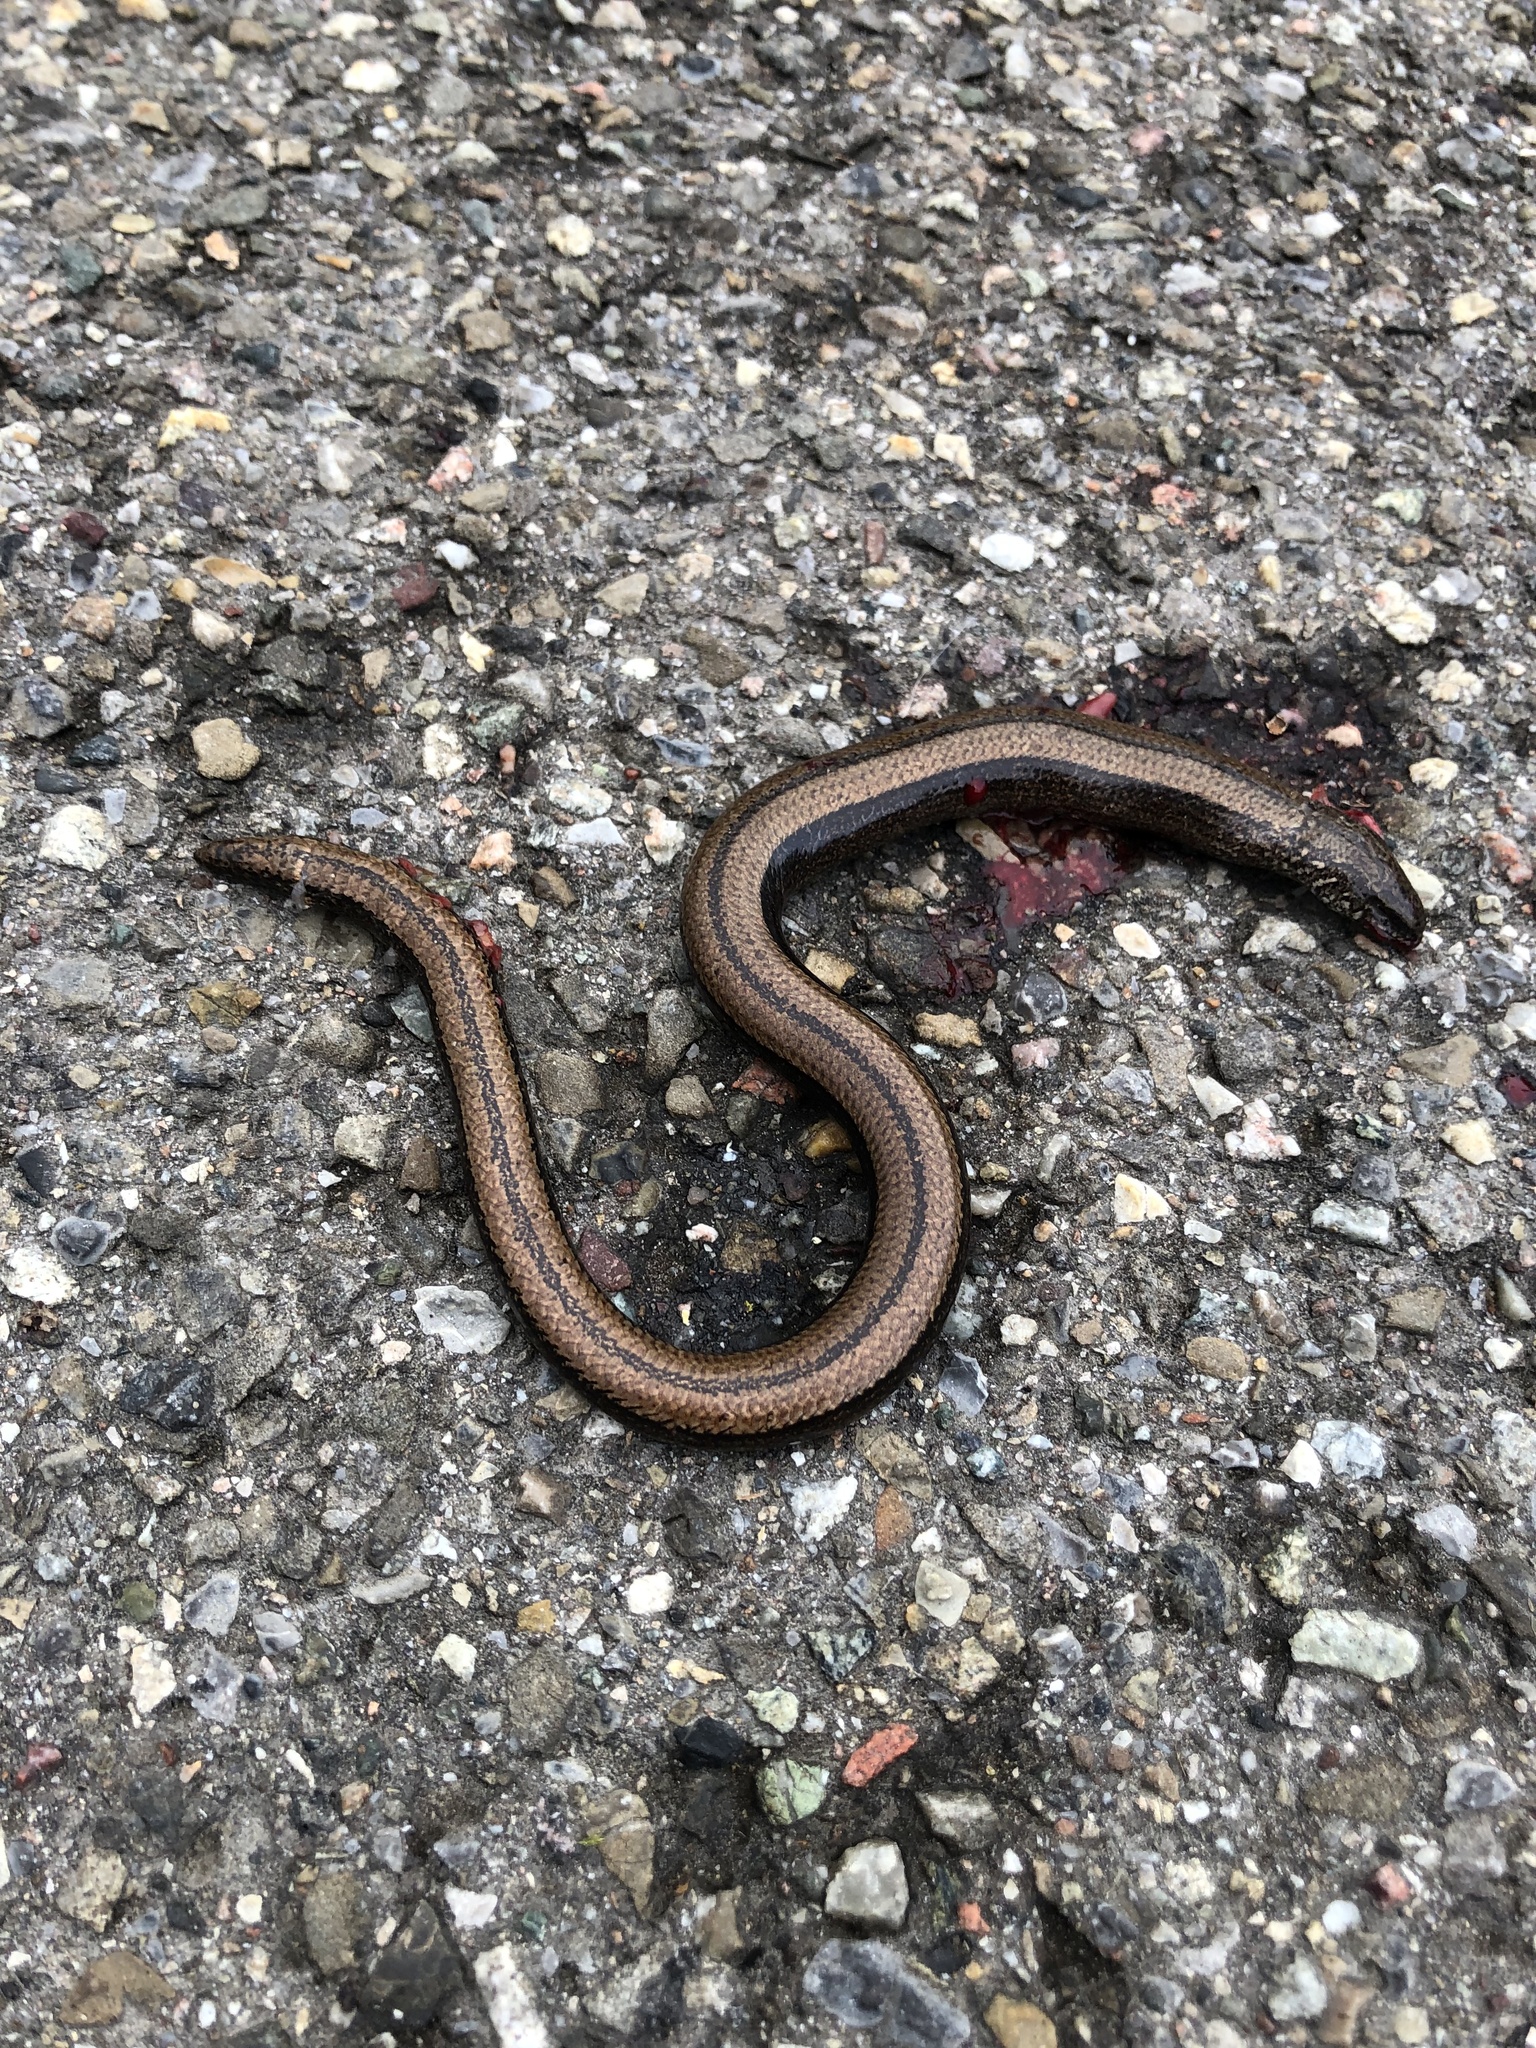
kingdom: Animalia
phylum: Chordata
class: Squamata
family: Anguidae
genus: Anguis
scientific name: Anguis fragilis
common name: Slow worm
